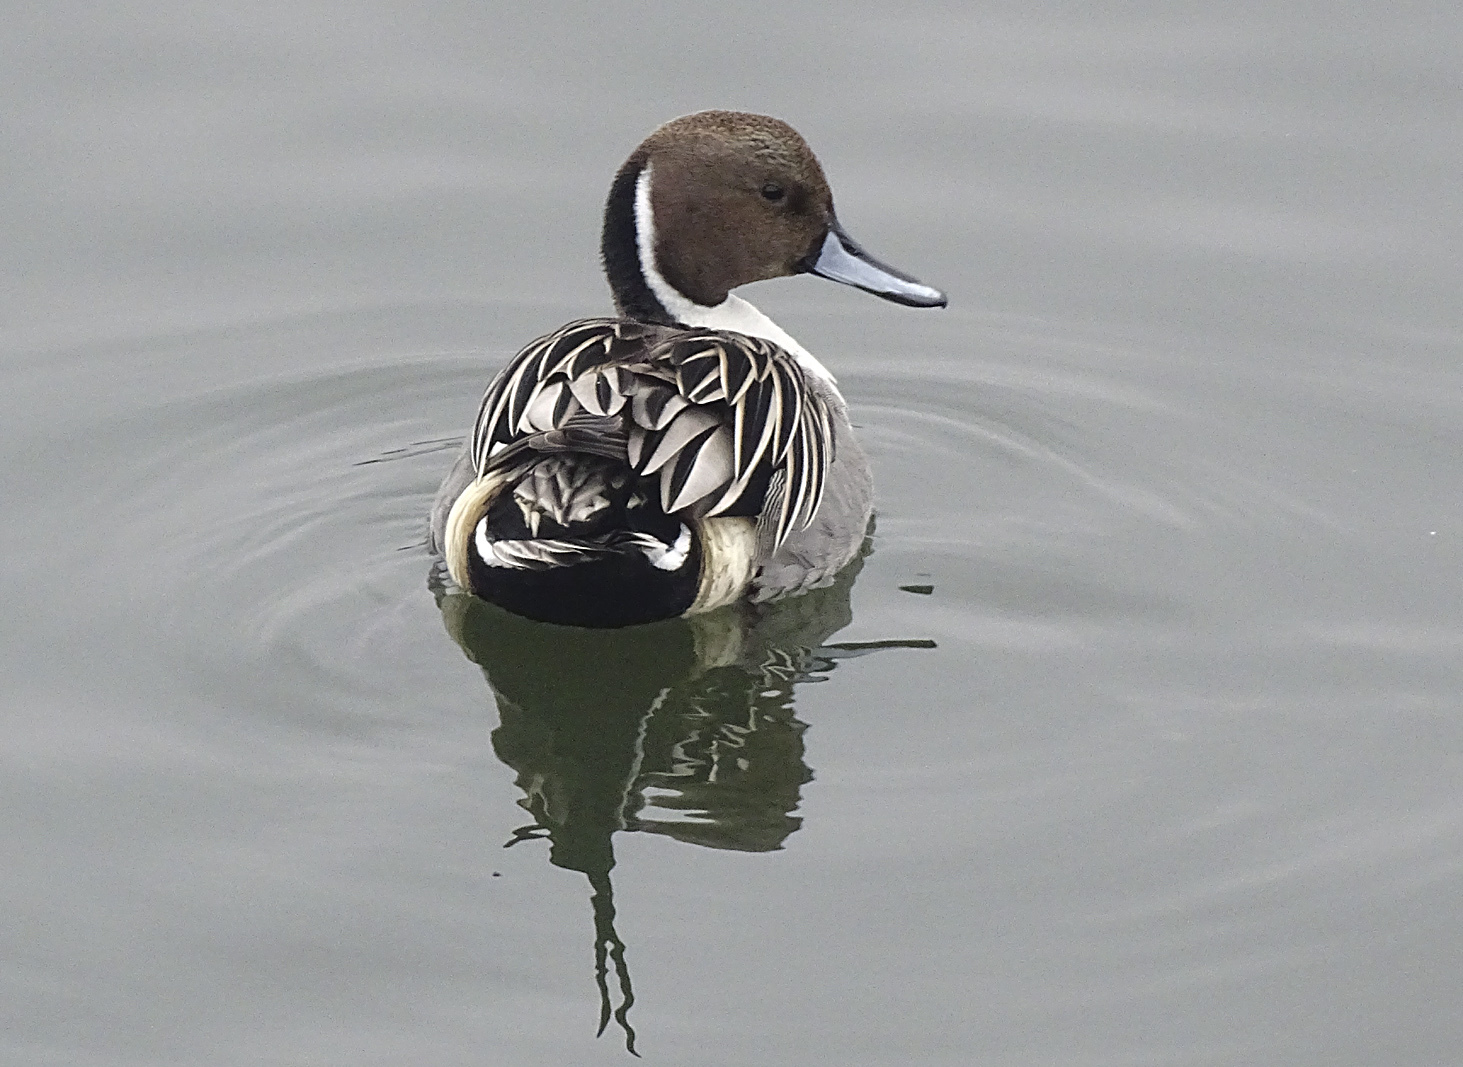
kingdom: Animalia
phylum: Chordata
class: Aves
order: Anseriformes
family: Anatidae
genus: Anas
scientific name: Anas acuta
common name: Northern pintail
